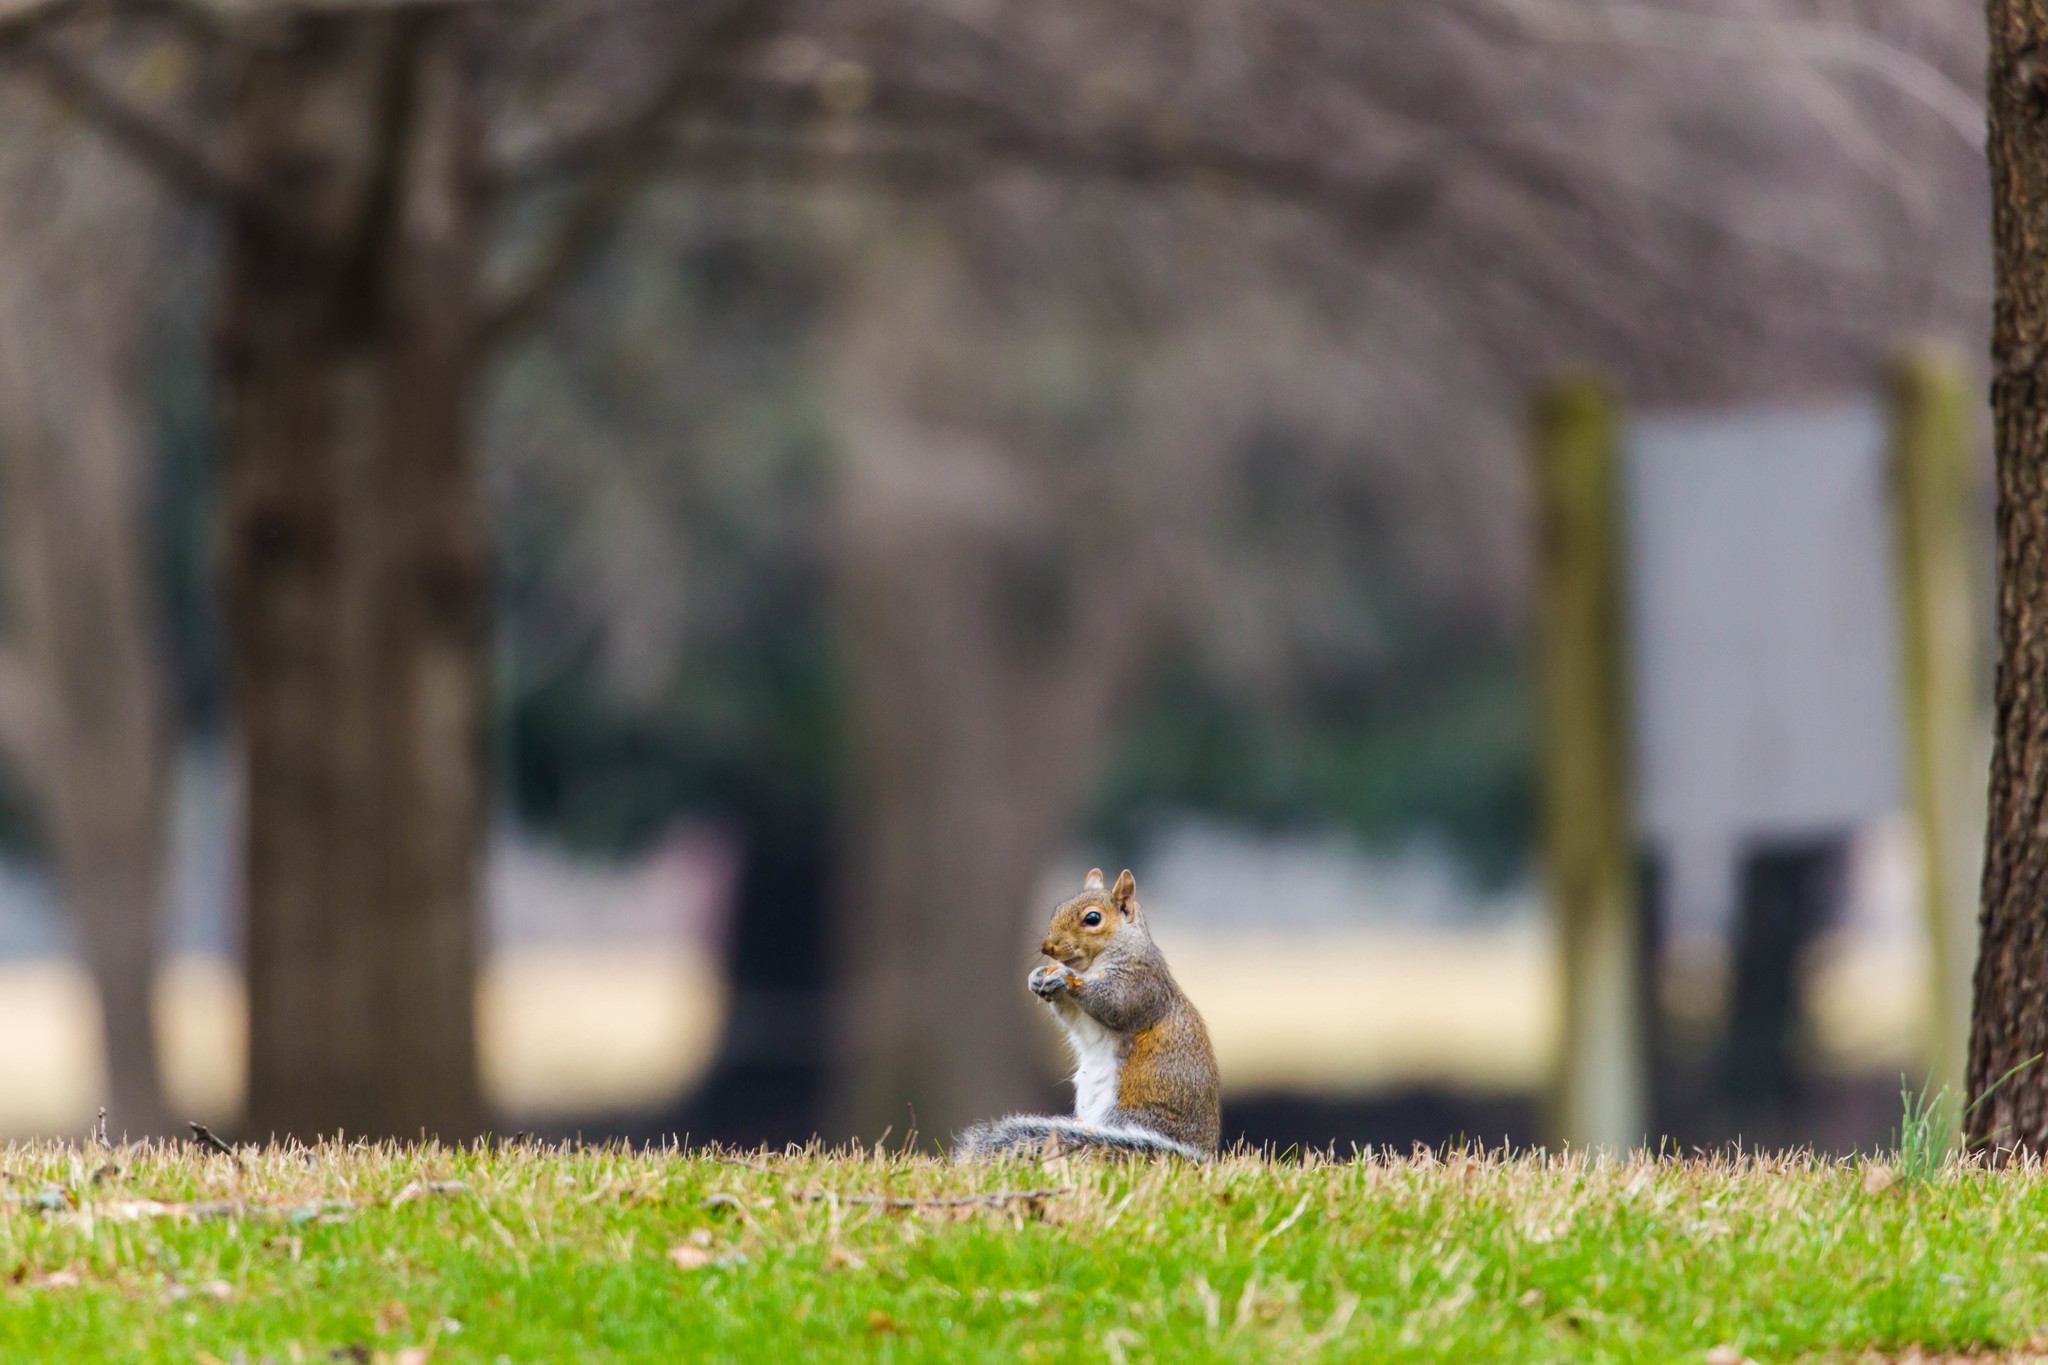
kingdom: Animalia
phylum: Chordata
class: Mammalia
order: Rodentia
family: Sciuridae
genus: Sciurus
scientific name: Sciurus carolinensis
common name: Eastern gray squirrel
